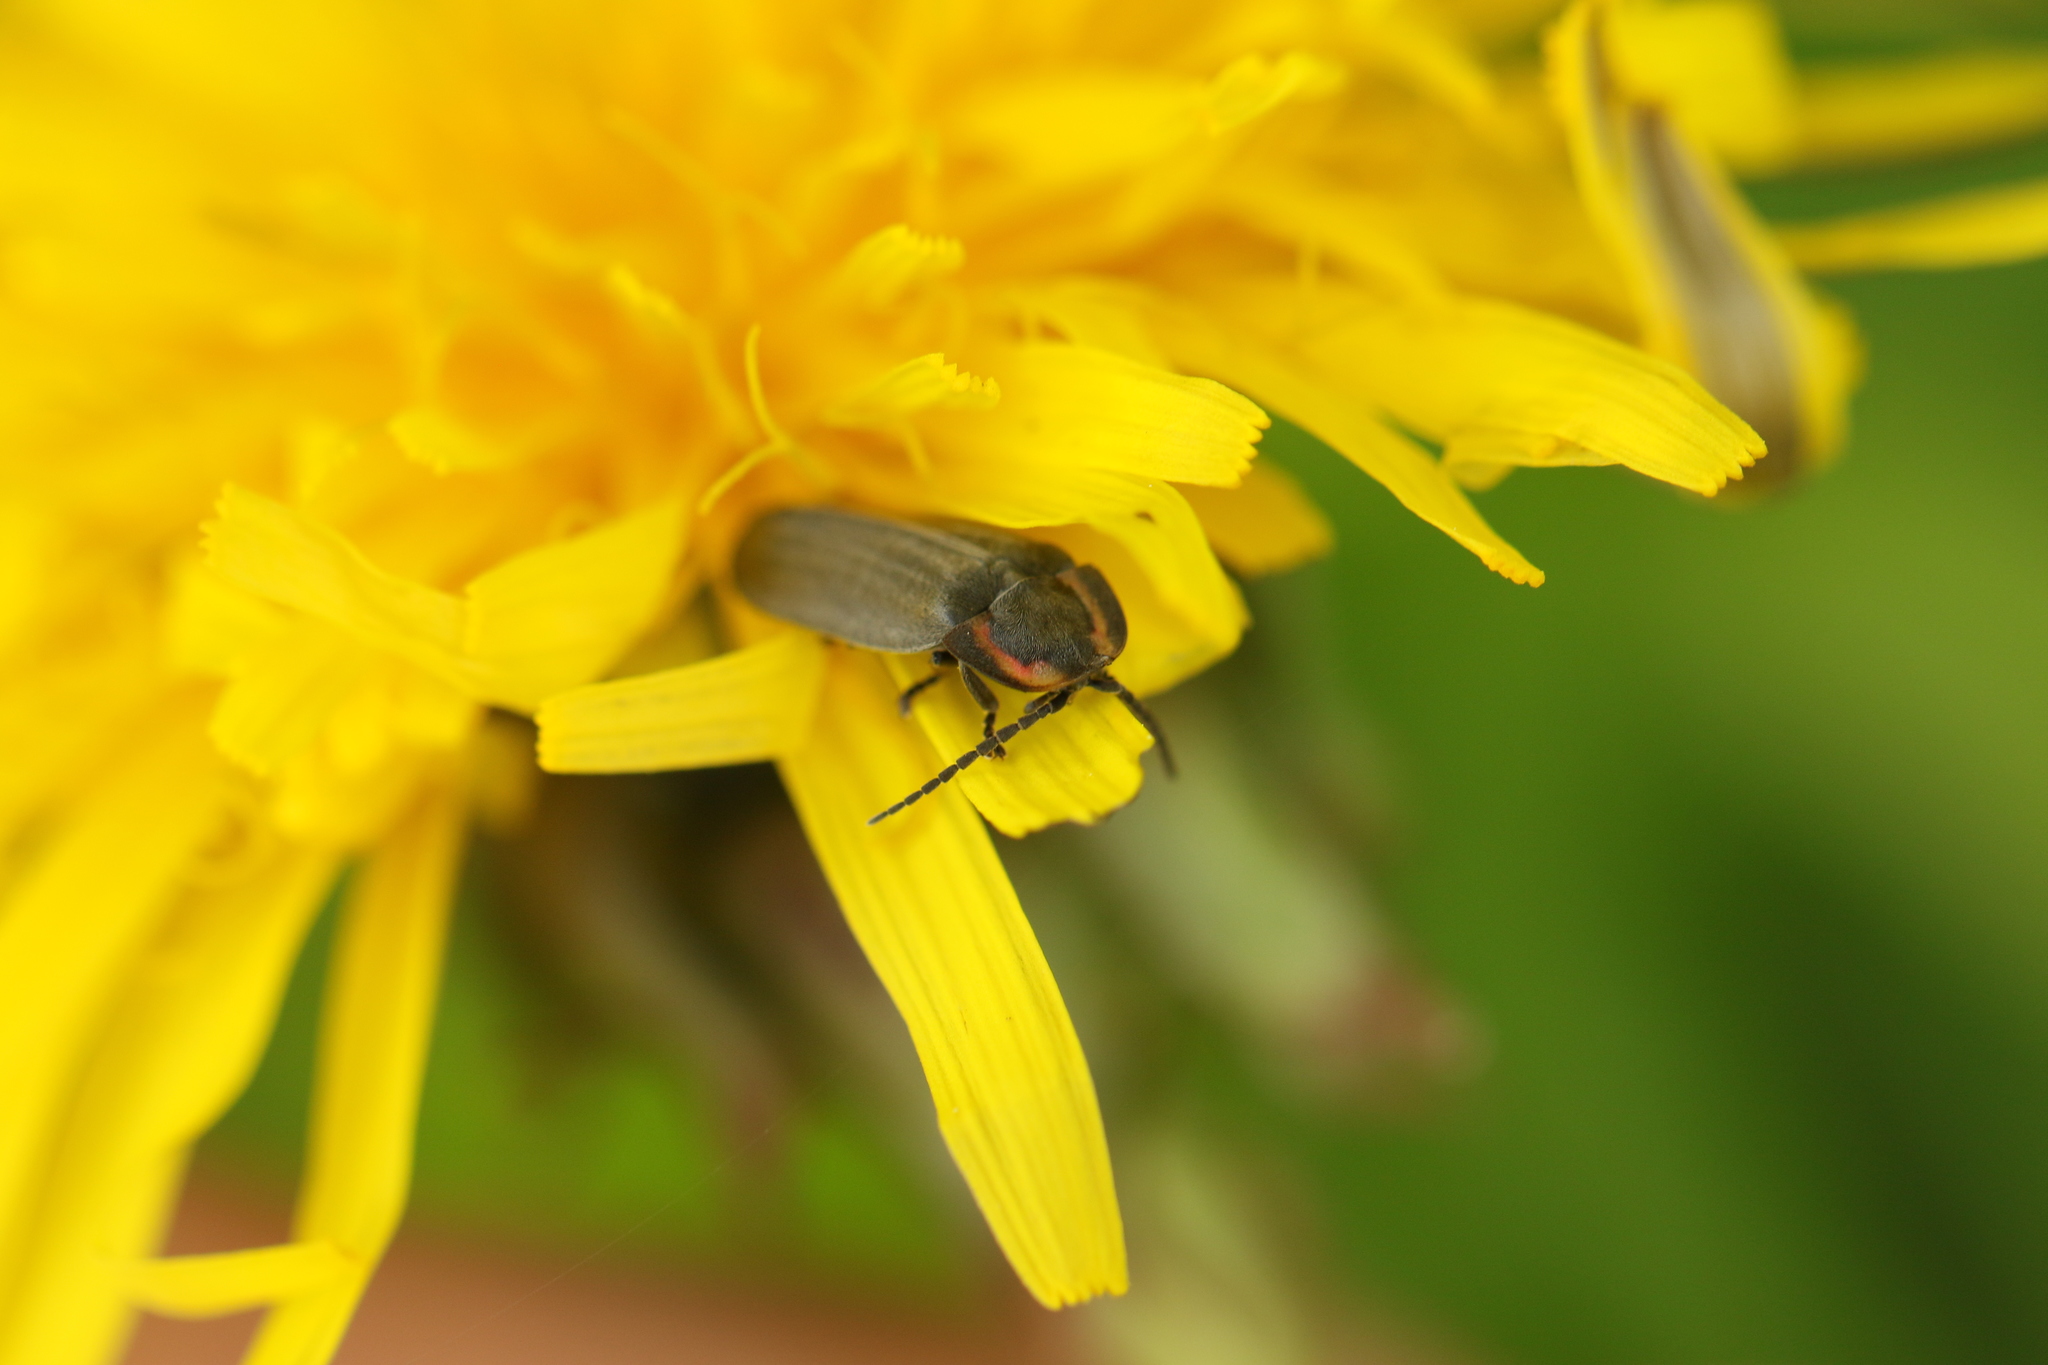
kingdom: Animalia
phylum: Arthropoda
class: Insecta
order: Coleoptera
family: Lampyridae
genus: Photinus
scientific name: Photinus corrusca
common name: Winter firefly
